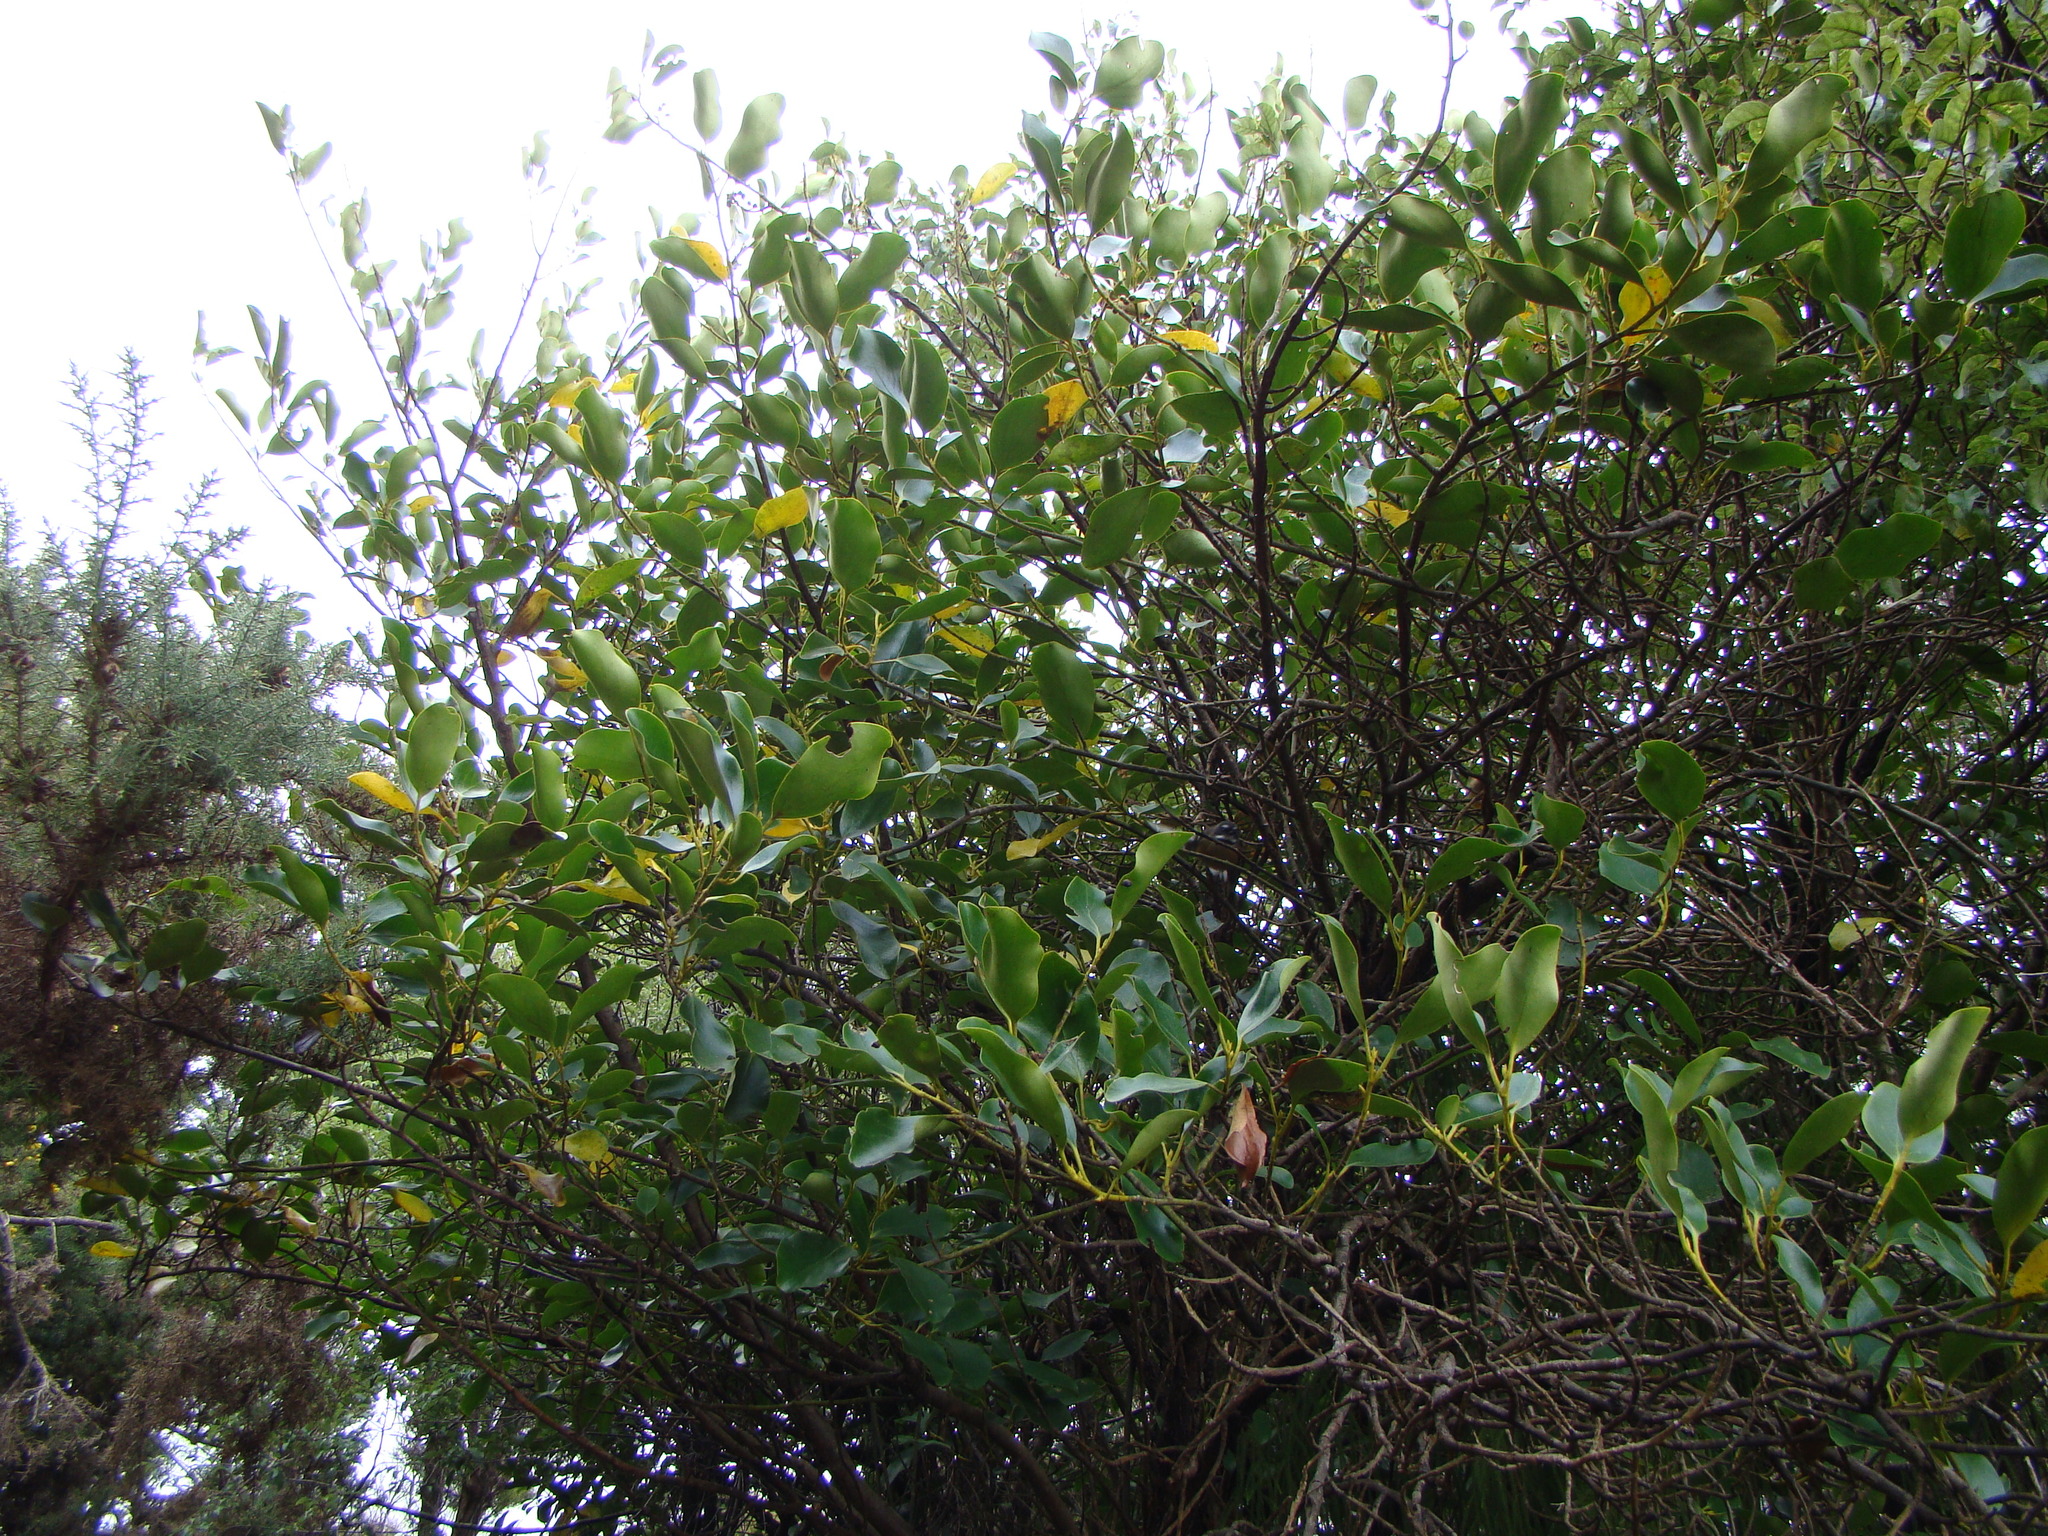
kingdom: Plantae
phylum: Tracheophyta
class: Magnoliopsida
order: Apiales
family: Griseliniaceae
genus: Griselinia
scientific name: Griselinia littoralis
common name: New zealand broadleaf
